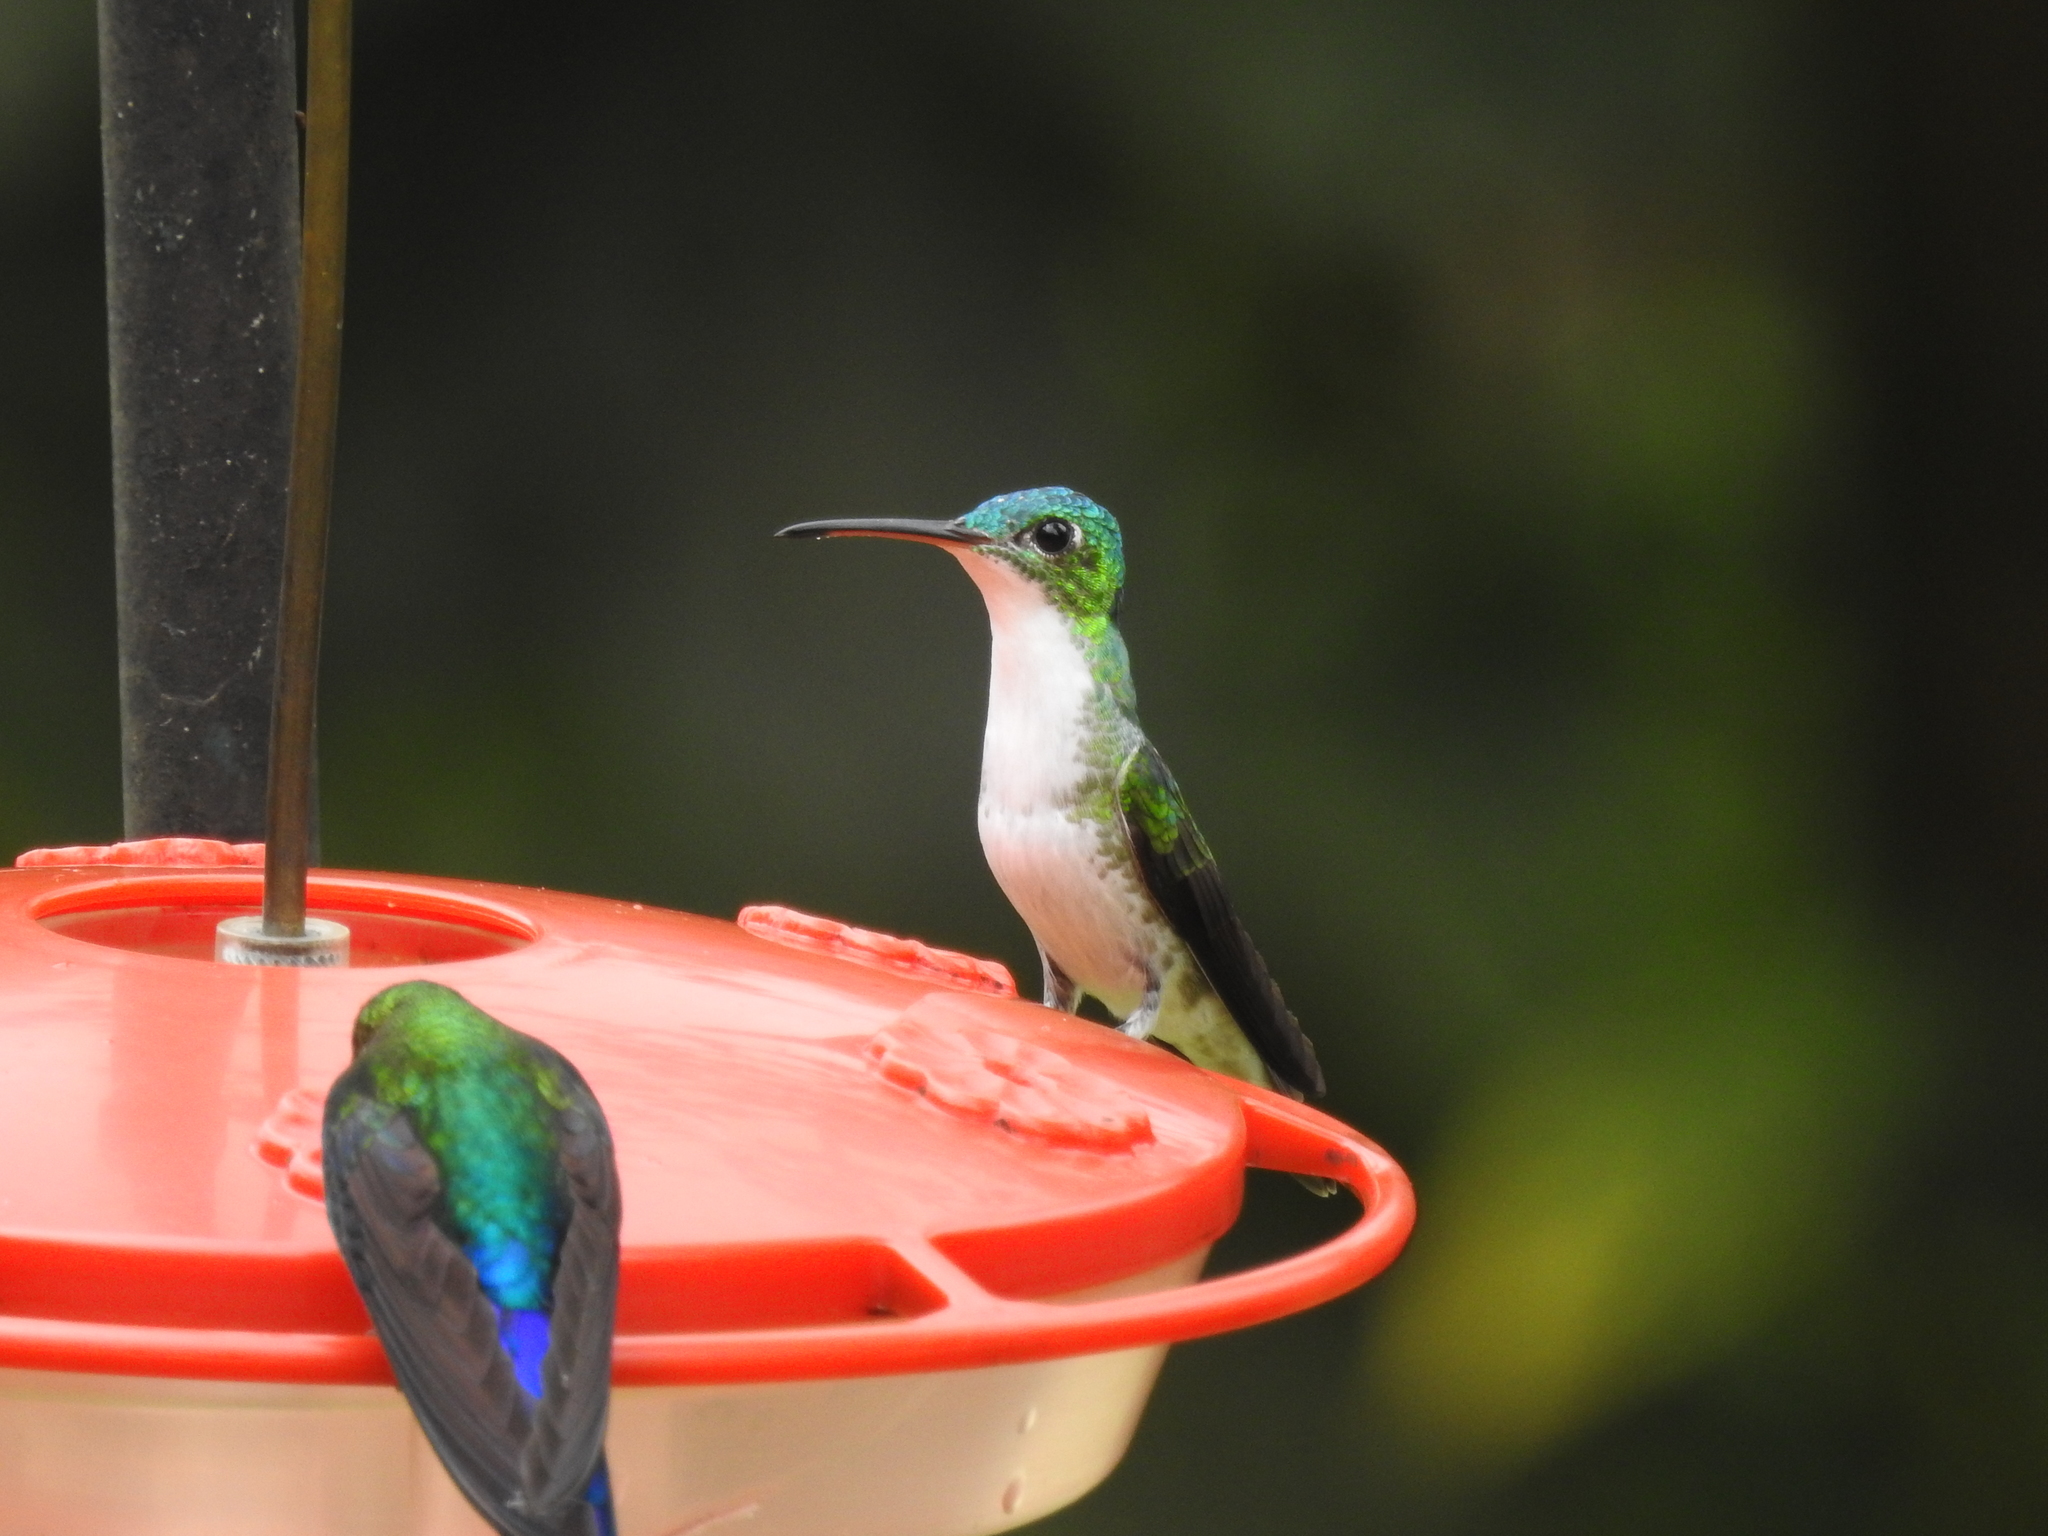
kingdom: Animalia
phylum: Chordata
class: Aves
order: Apodiformes
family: Trochilidae
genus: Uranomitra
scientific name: Uranomitra franciae
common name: Andean emerald
